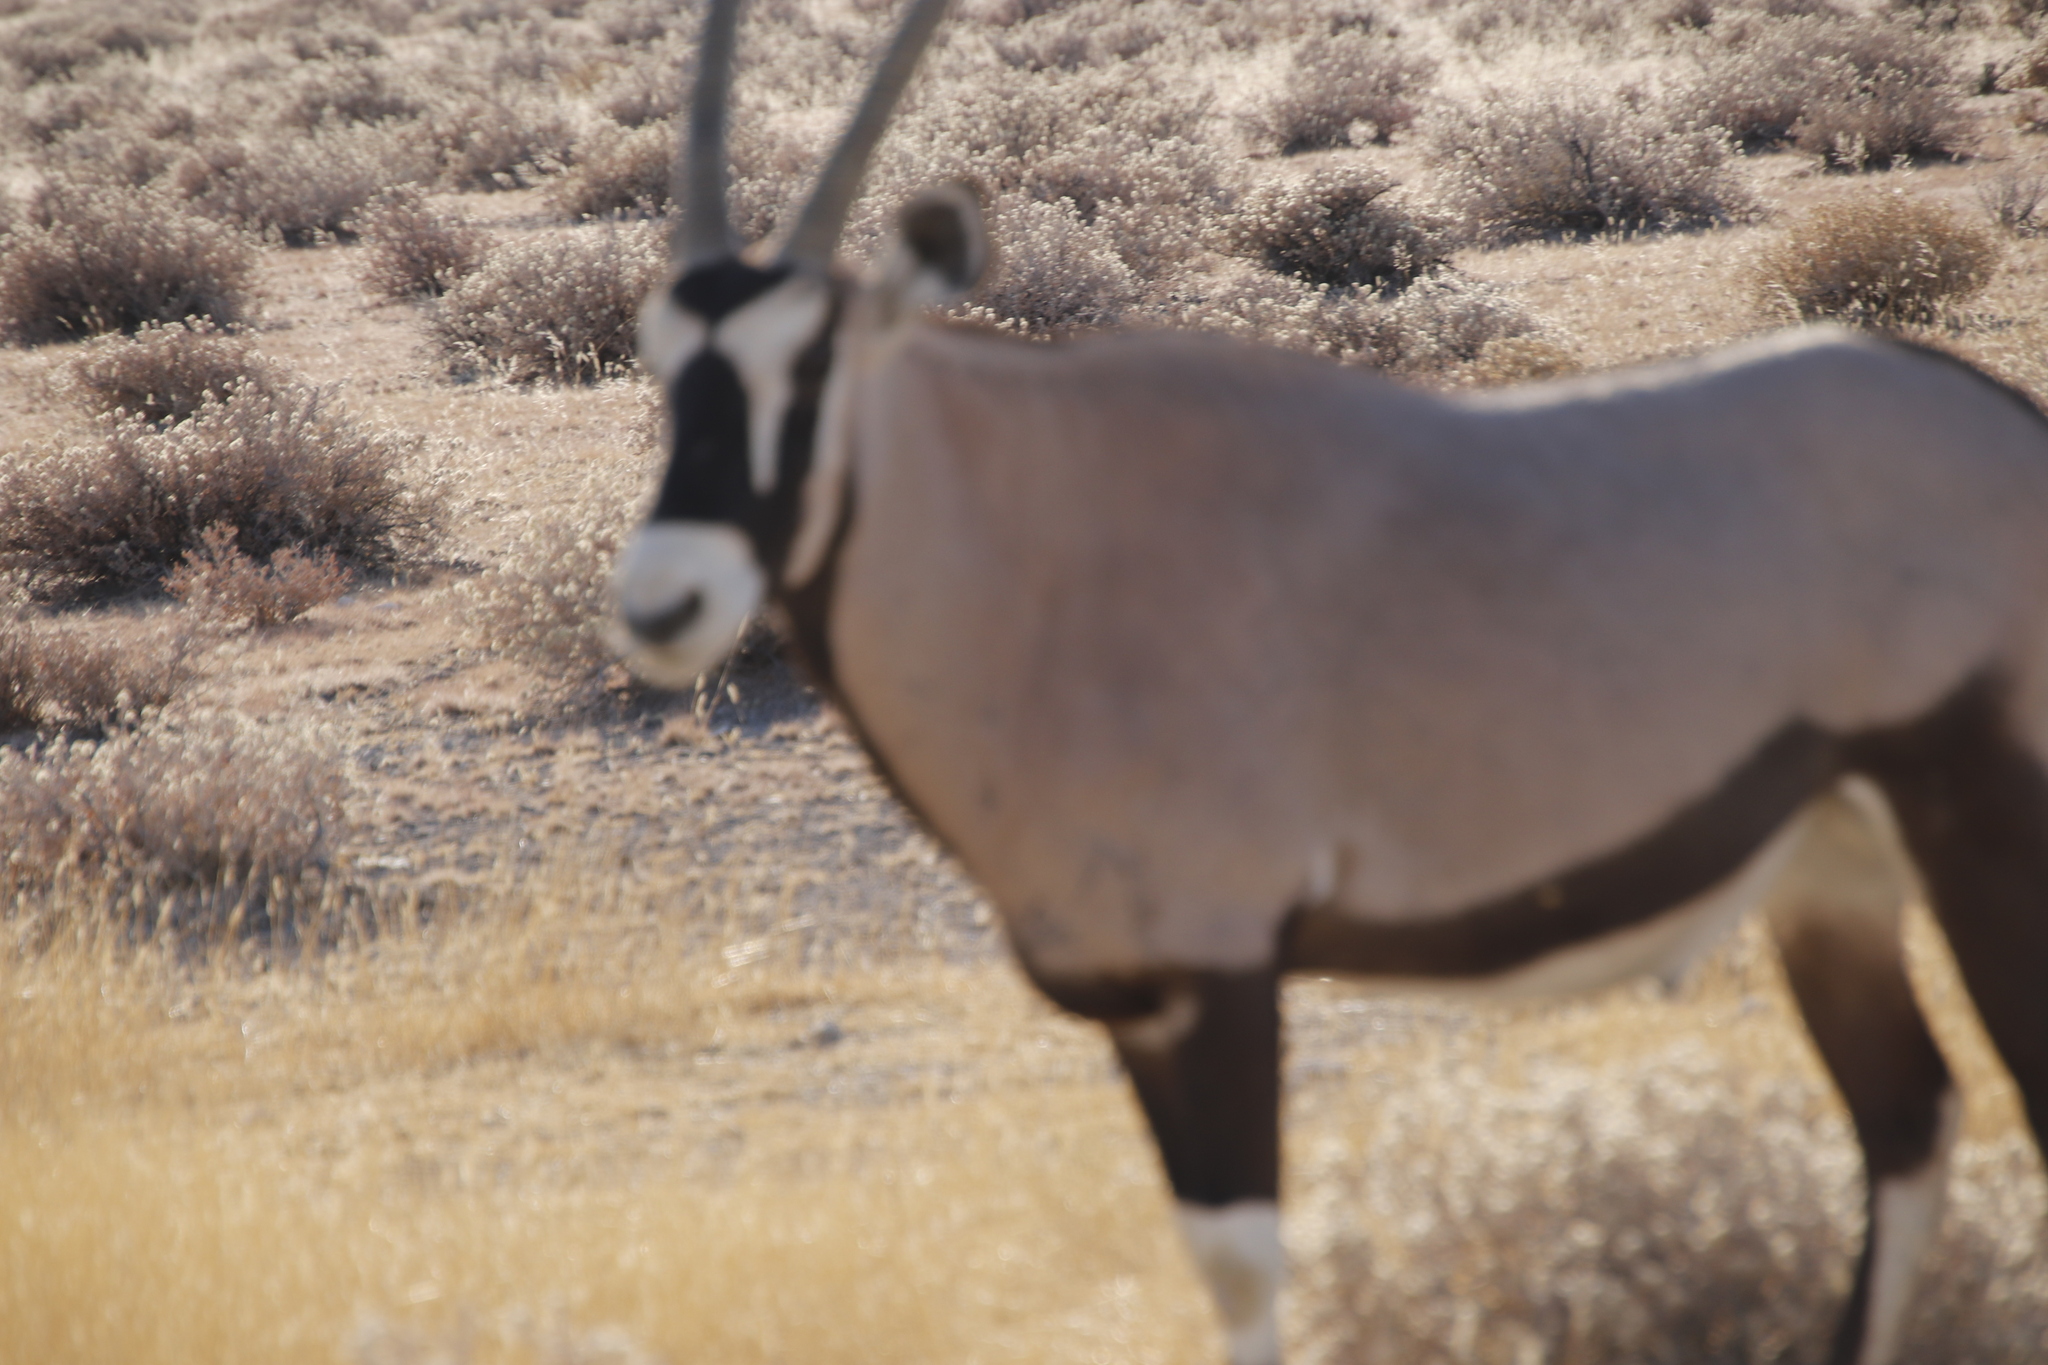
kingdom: Animalia
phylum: Chordata
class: Mammalia
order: Artiodactyla
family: Bovidae
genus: Oryx
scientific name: Oryx gazella
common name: Gemsbok
